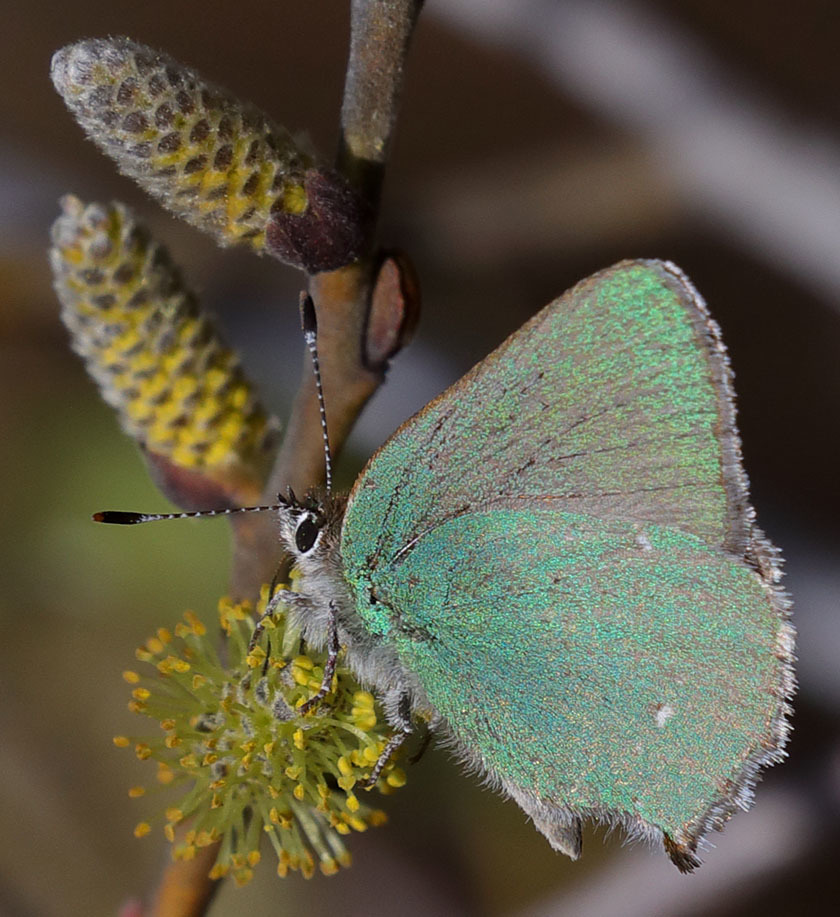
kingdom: Animalia
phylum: Arthropoda
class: Insecta
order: Lepidoptera
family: Lycaenidae
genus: Callophrys
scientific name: Callophrys dumetorum
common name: Bramble hairstreak
